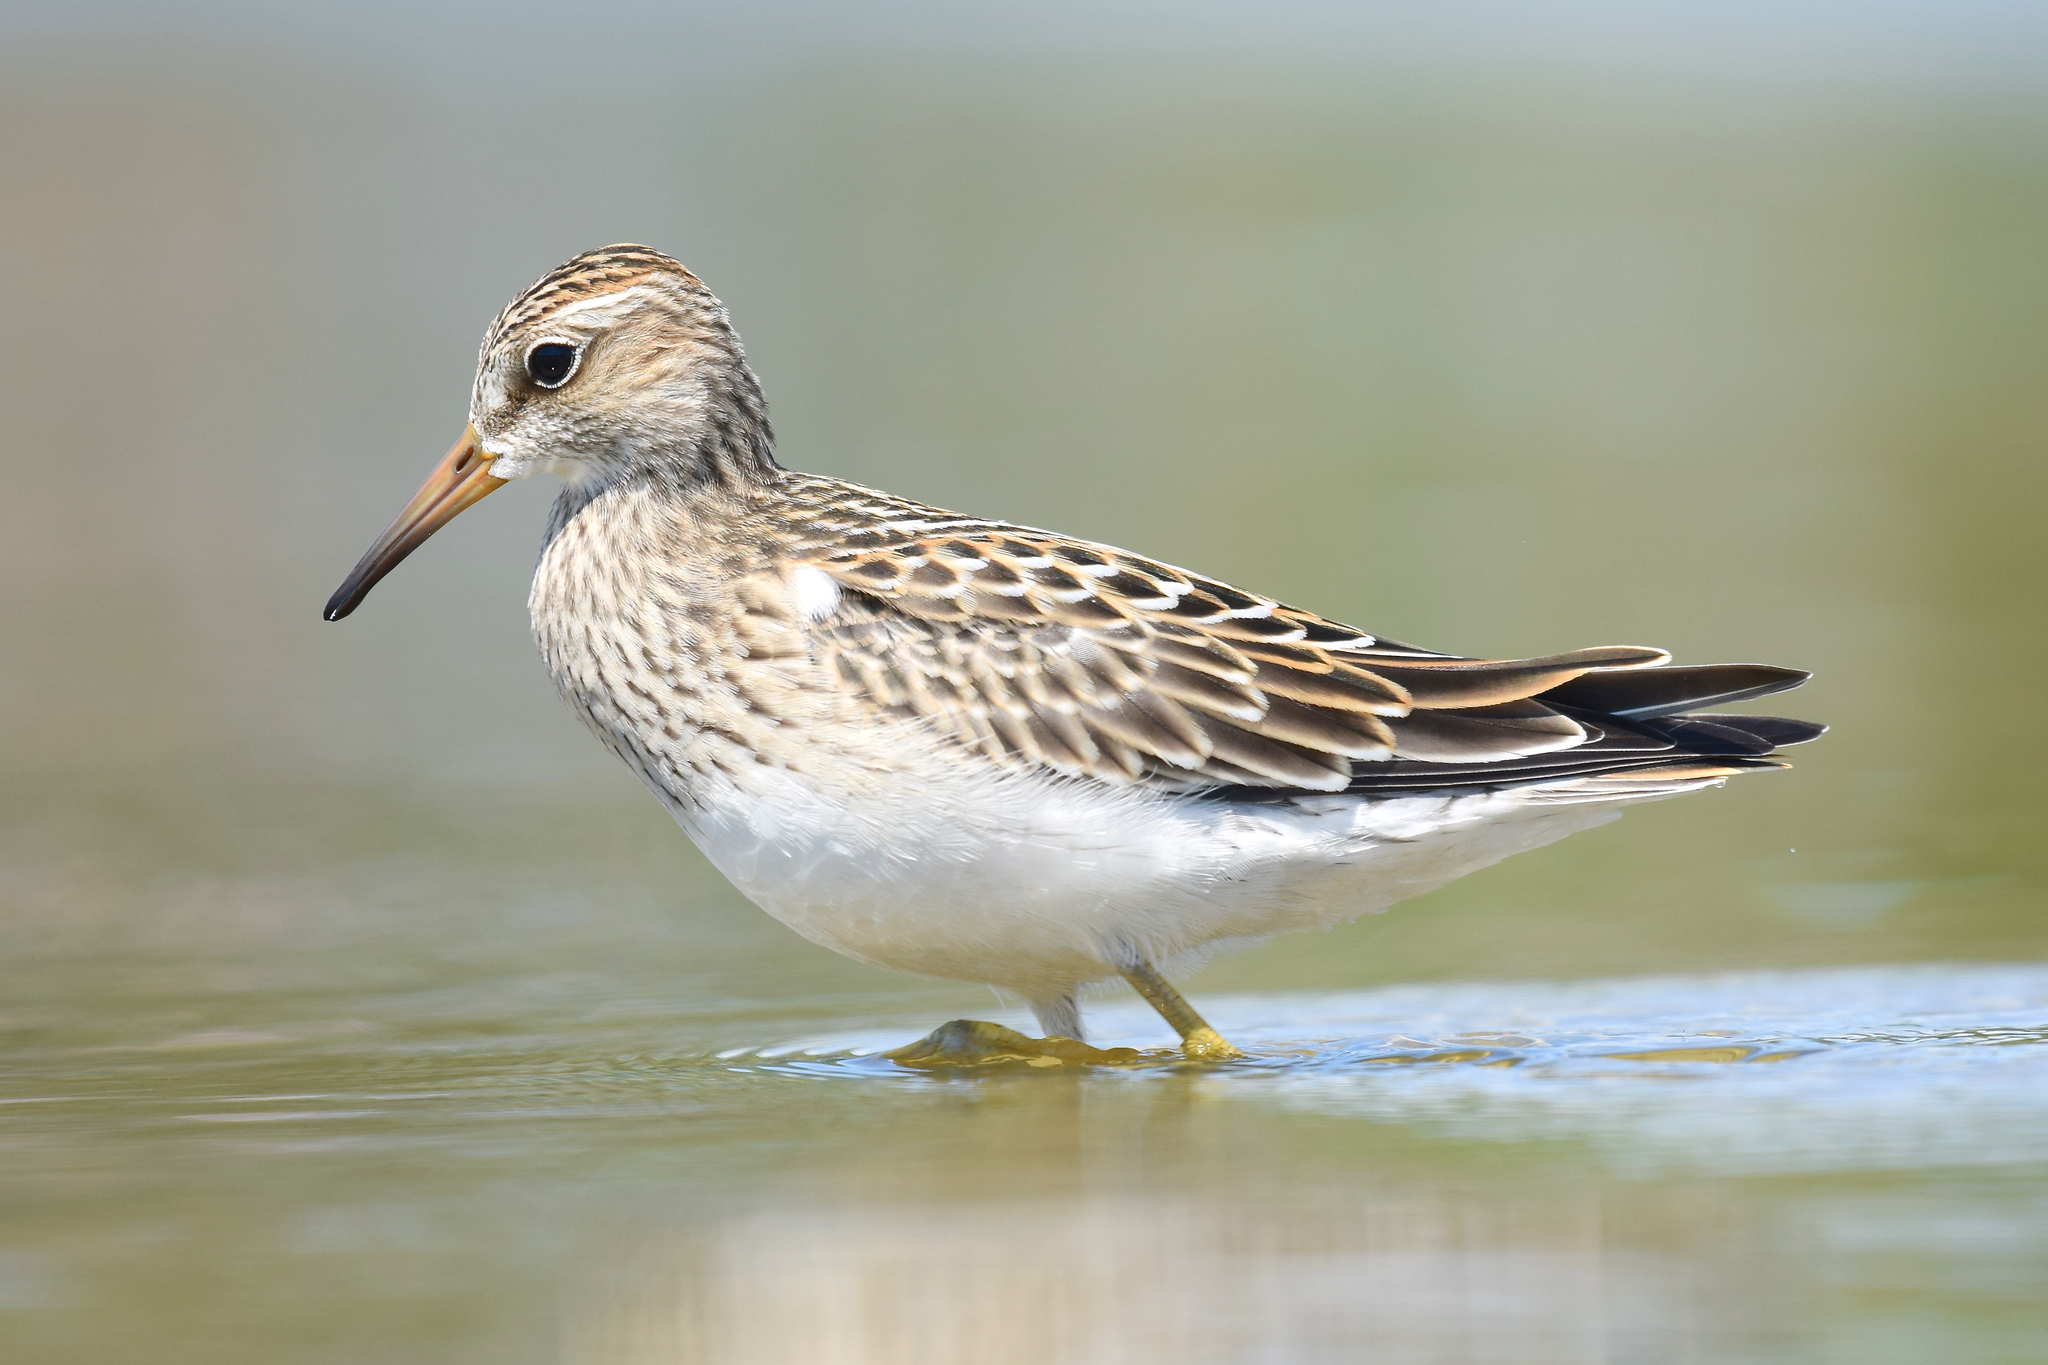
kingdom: Animalia
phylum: Chordata
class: Aves
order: Charadriiformes
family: Scolopacidae
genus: Calidris
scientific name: Calidris melanotos
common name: Pectoral sandpiper
